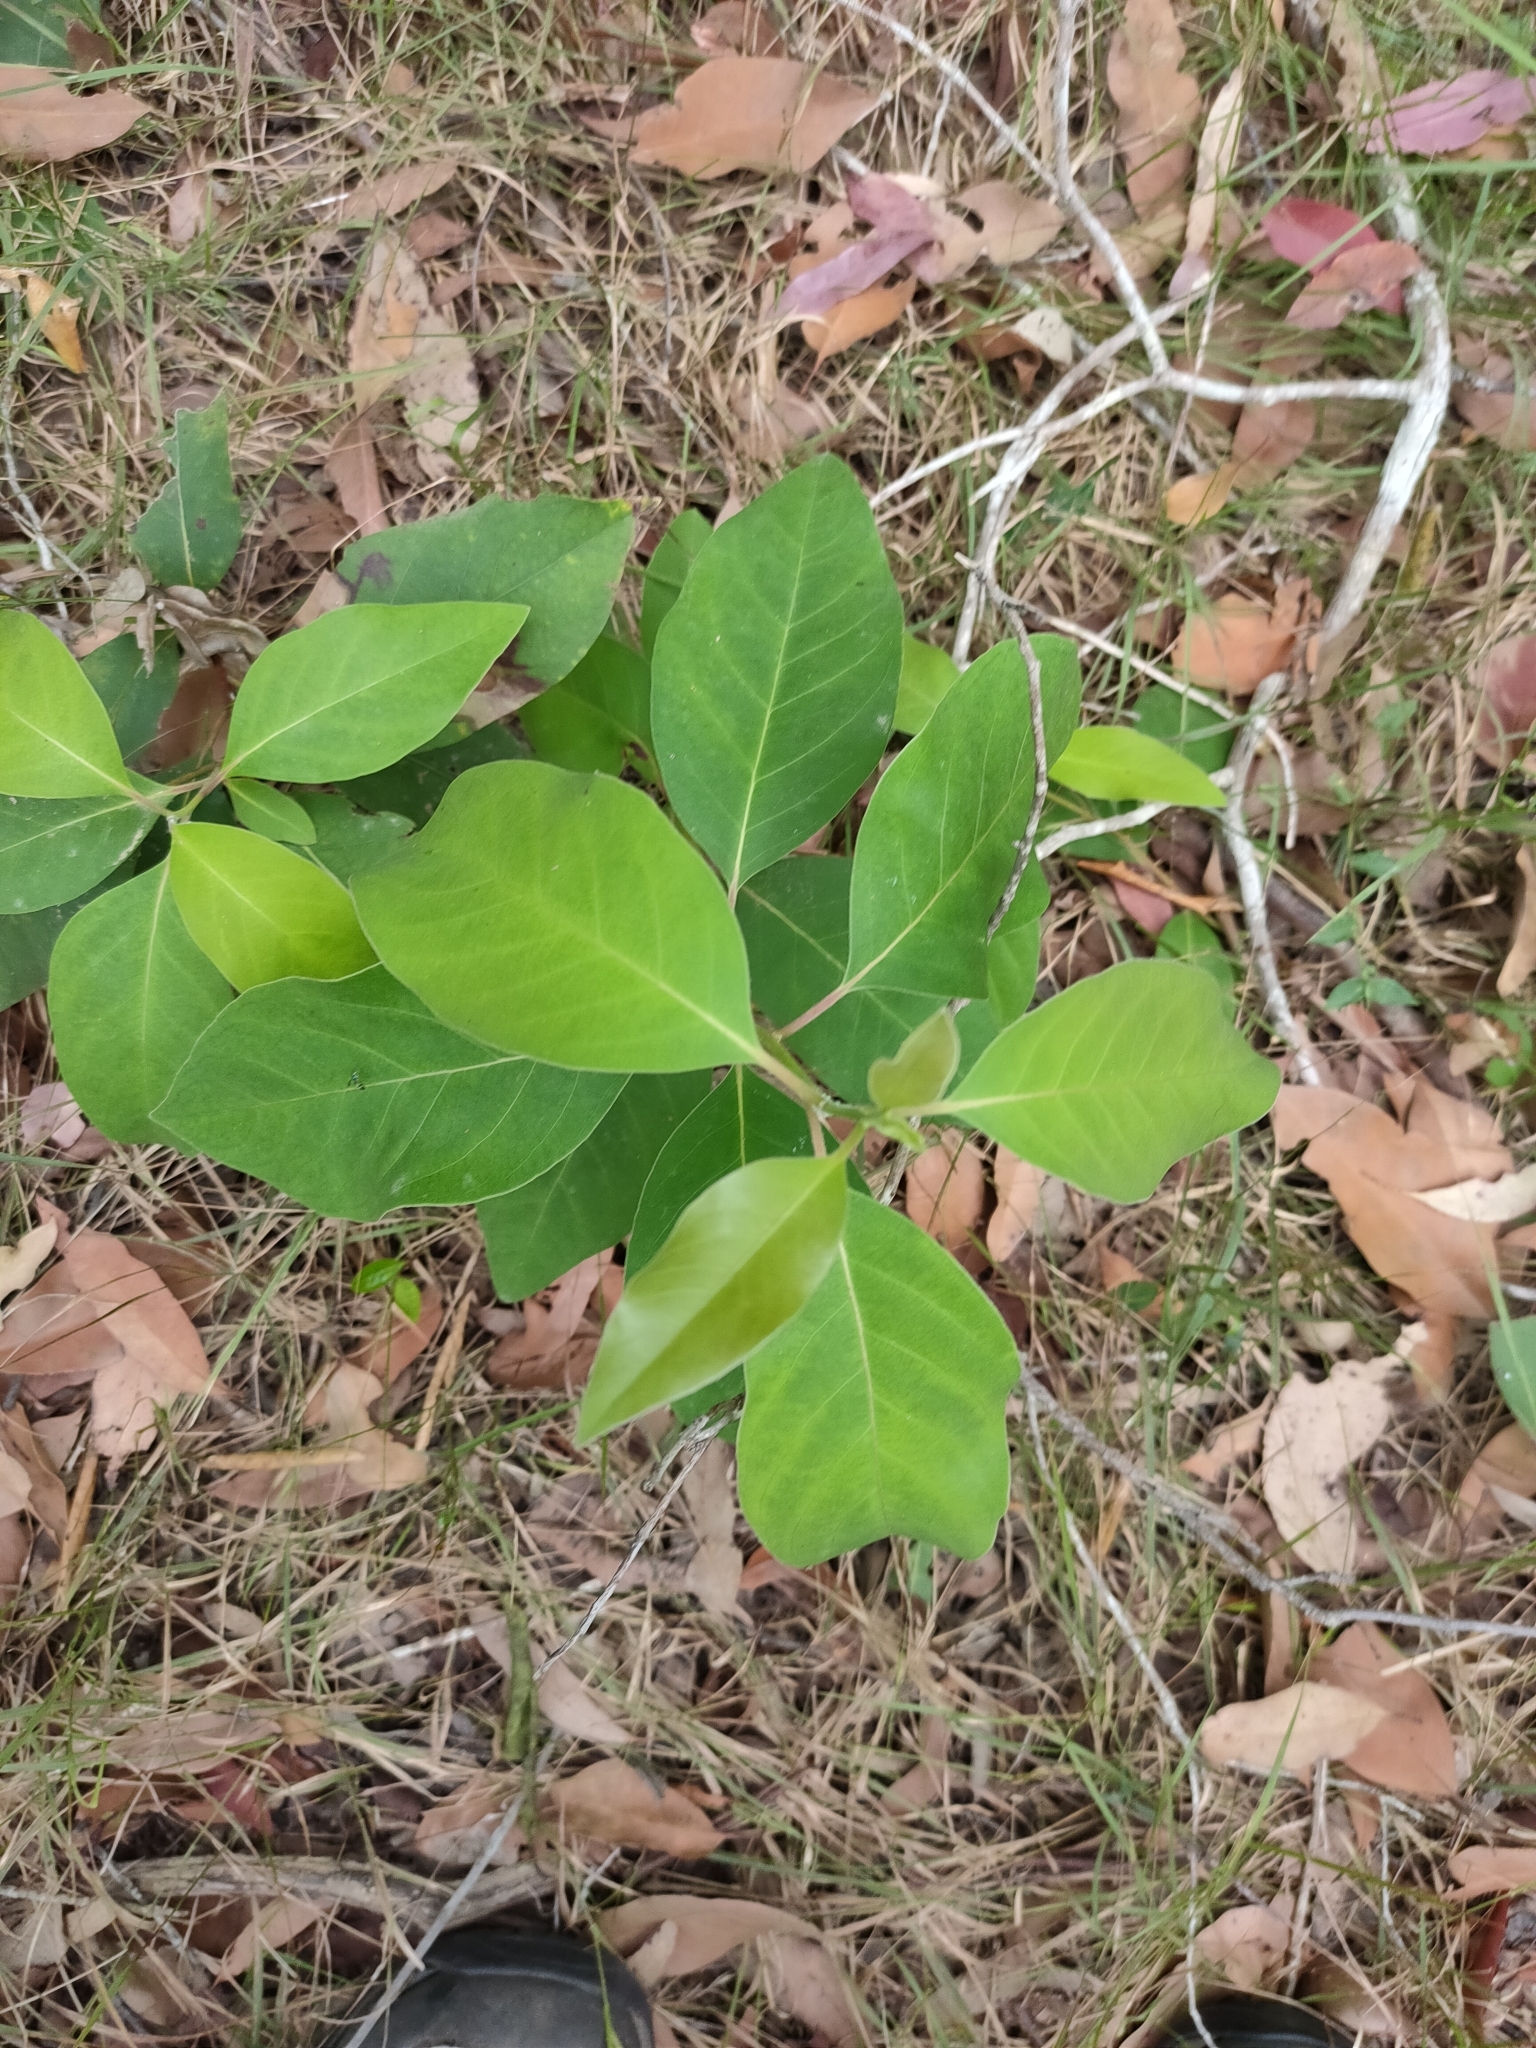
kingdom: Plantae
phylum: Tracheophyta
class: Magnoliopsida
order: Myrtales
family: Myrtaceae
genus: Lophostemon
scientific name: Lophostemon suaveolens
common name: Paperbark-mahogany
